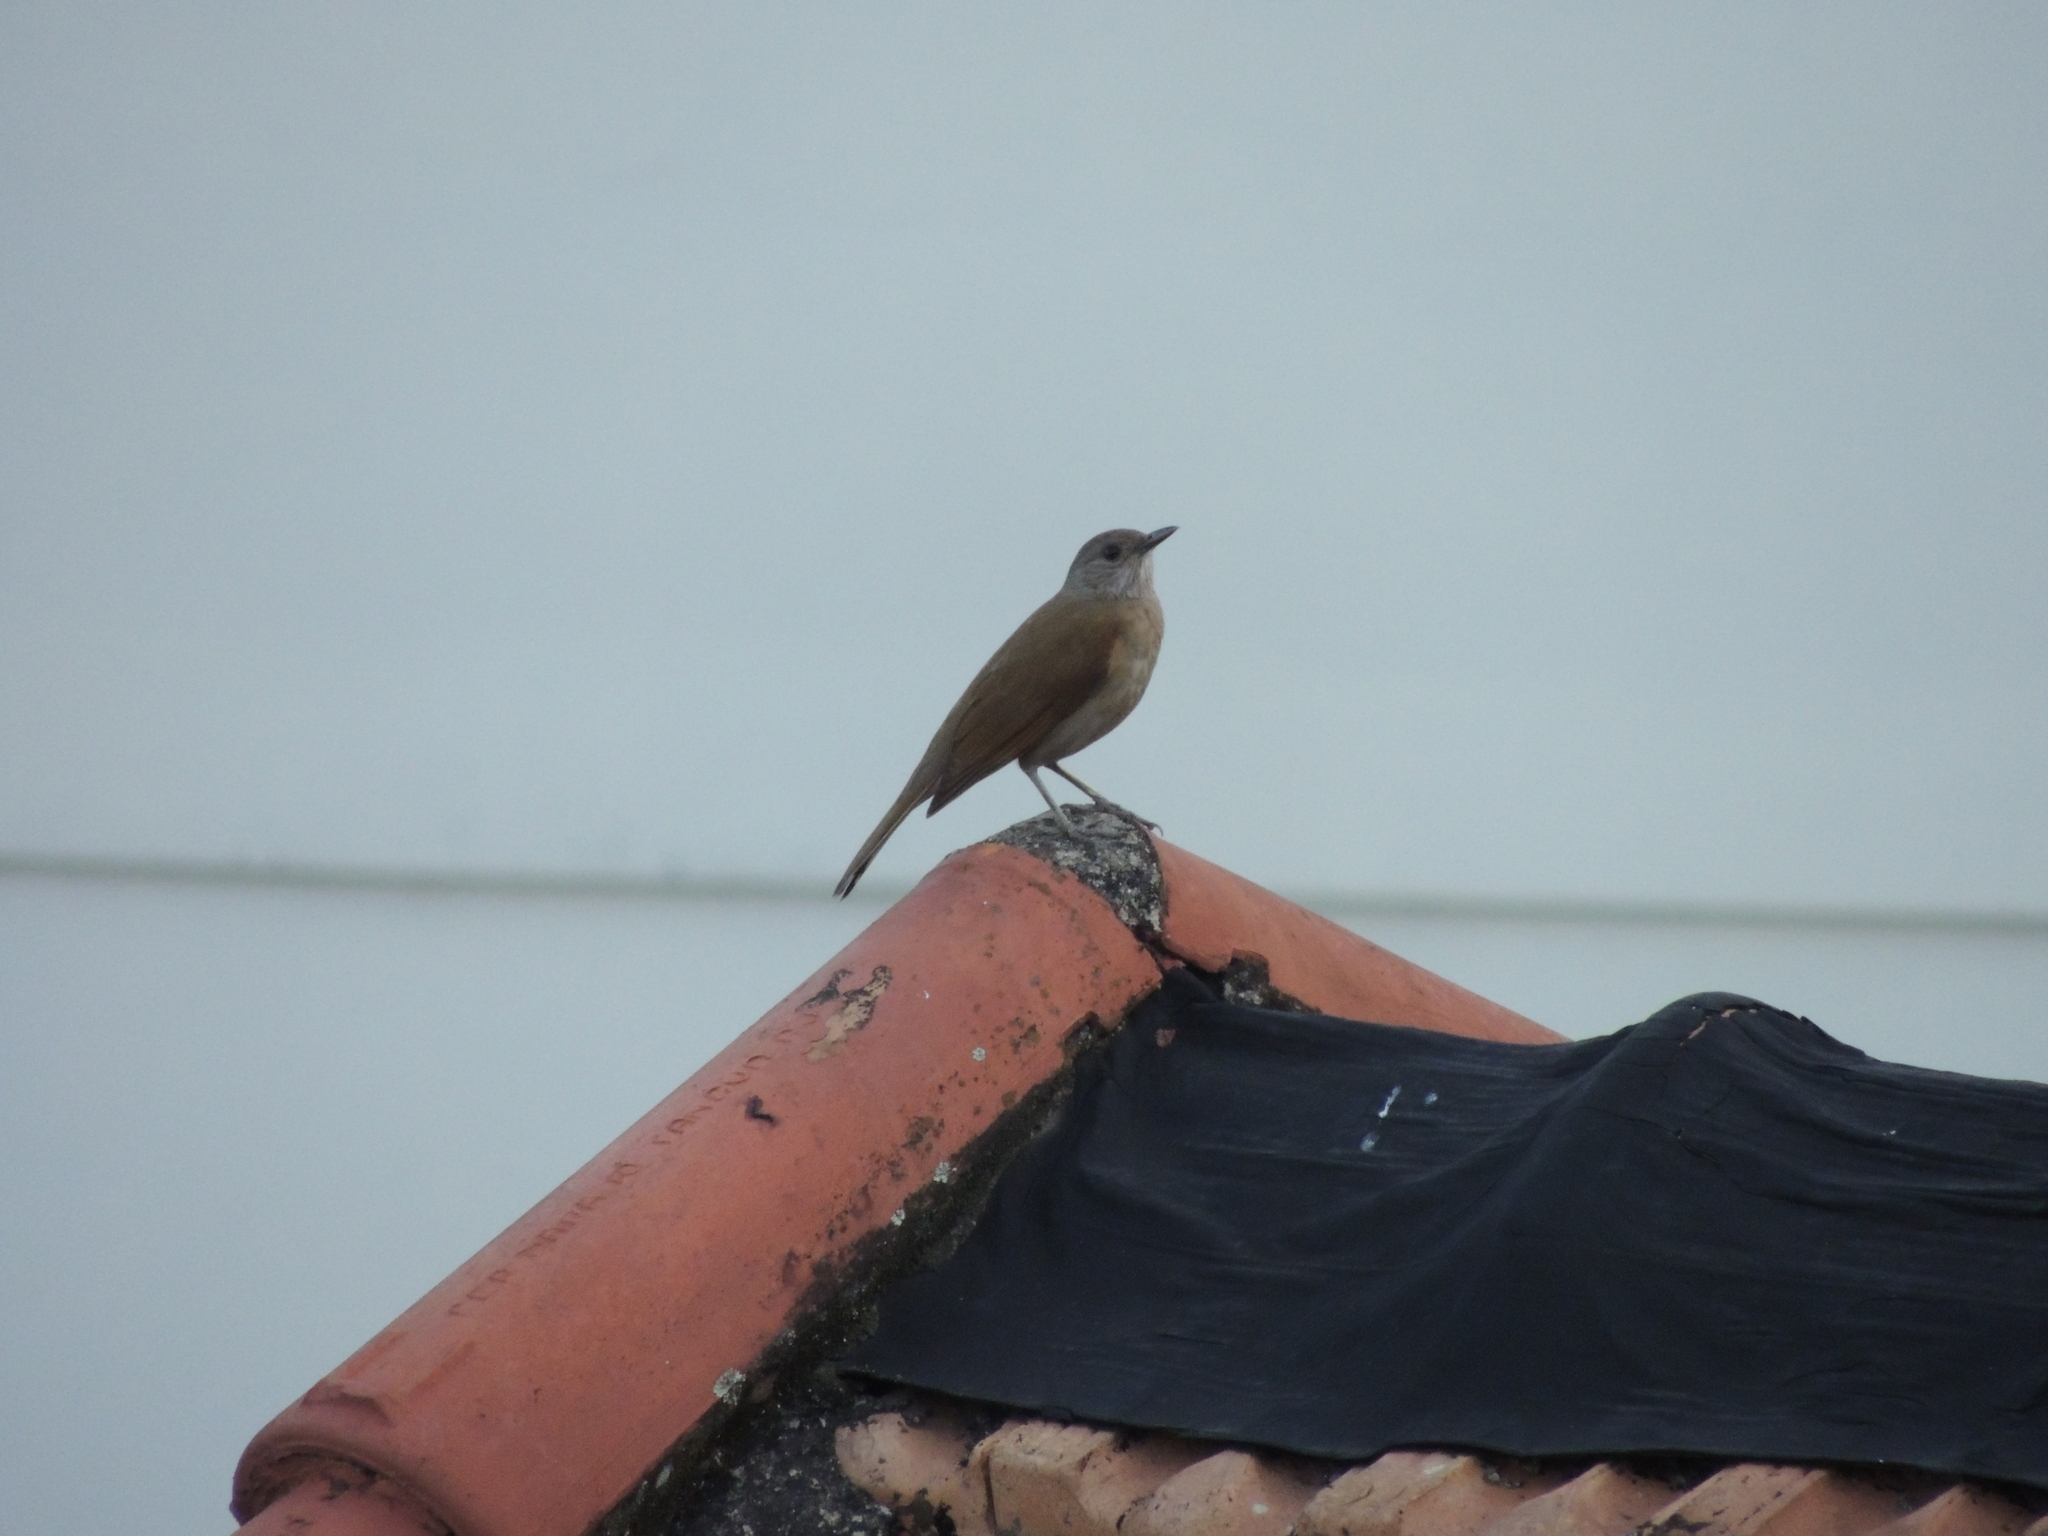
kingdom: Animalia
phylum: Chordata
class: Aves
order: Passeriformes
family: Turdidae
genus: Turdus
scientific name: Turdus leucomelas
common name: Pale-breasted thrush
